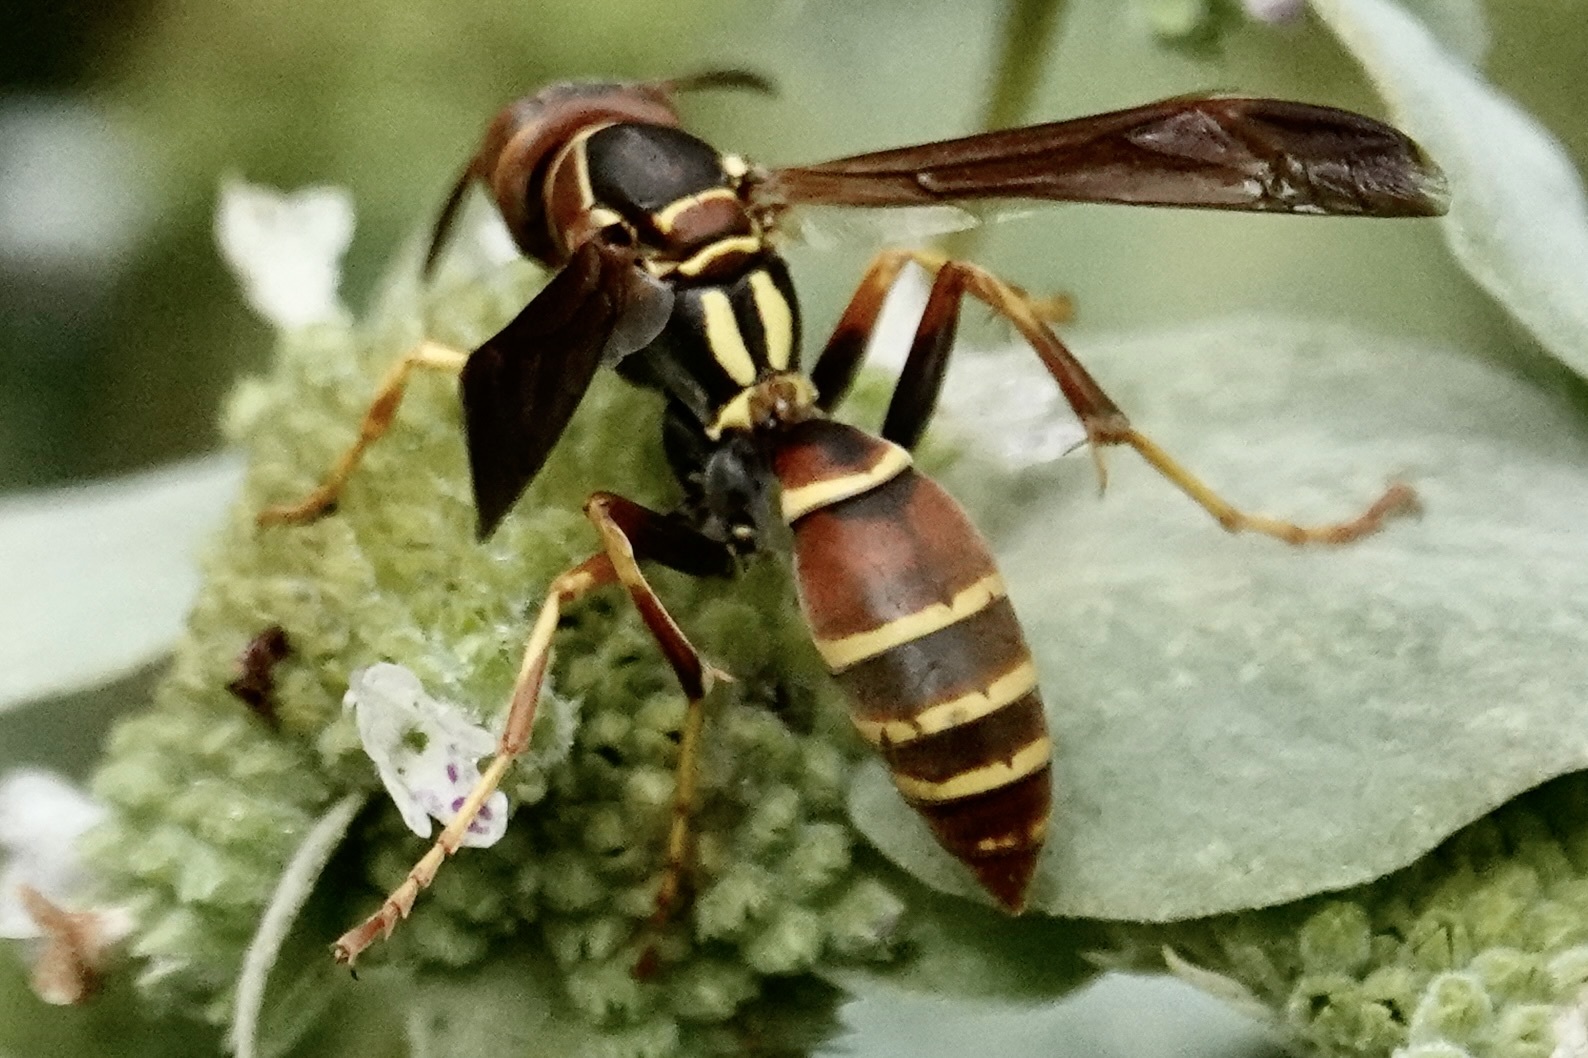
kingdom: Animalia
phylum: Arthropoda
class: Insecta
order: Hymenoptera
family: Eumenidae
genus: Polistes
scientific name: Polistes dorsalis
